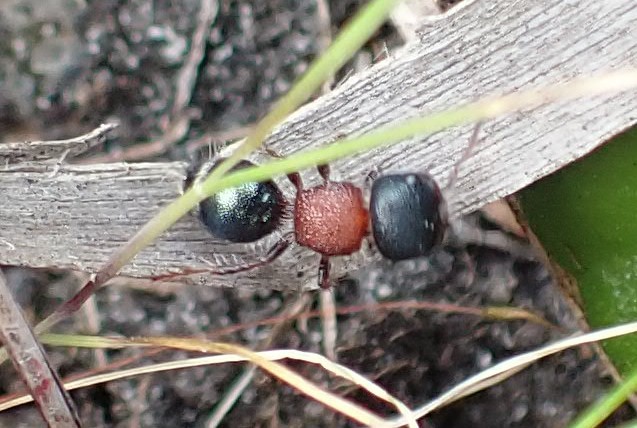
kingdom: Animalia
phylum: Arthropoda
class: Insecta
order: Hymenoptera
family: Mutillidae
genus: Ephutomorpha
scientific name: Ephutomorpha
